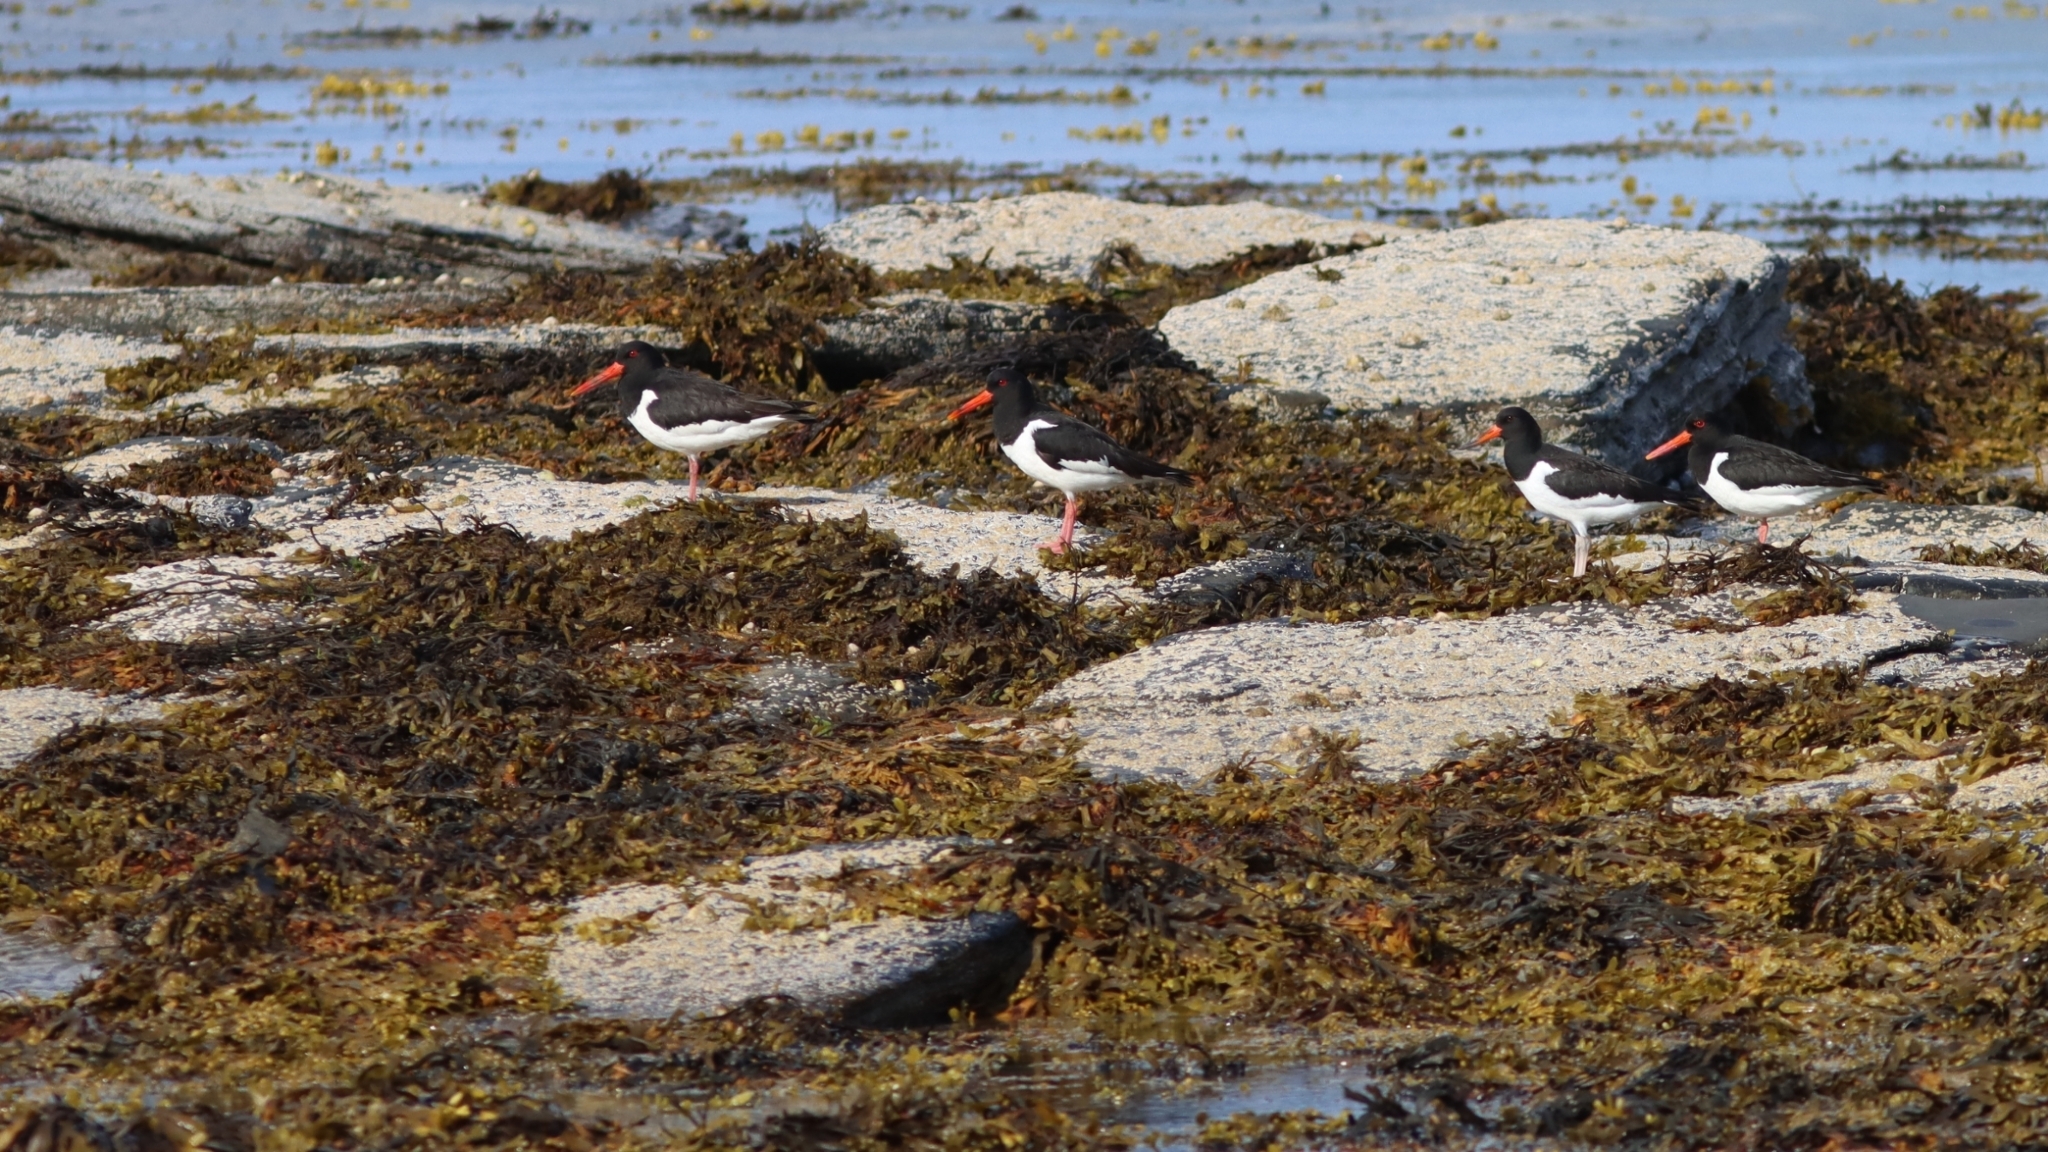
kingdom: Animalia
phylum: Chordata
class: Aves
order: Charadriiformes
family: Haematopodidae
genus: Haematopus
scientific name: Haematopus ostralegus
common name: Eurasian oystercatcher
